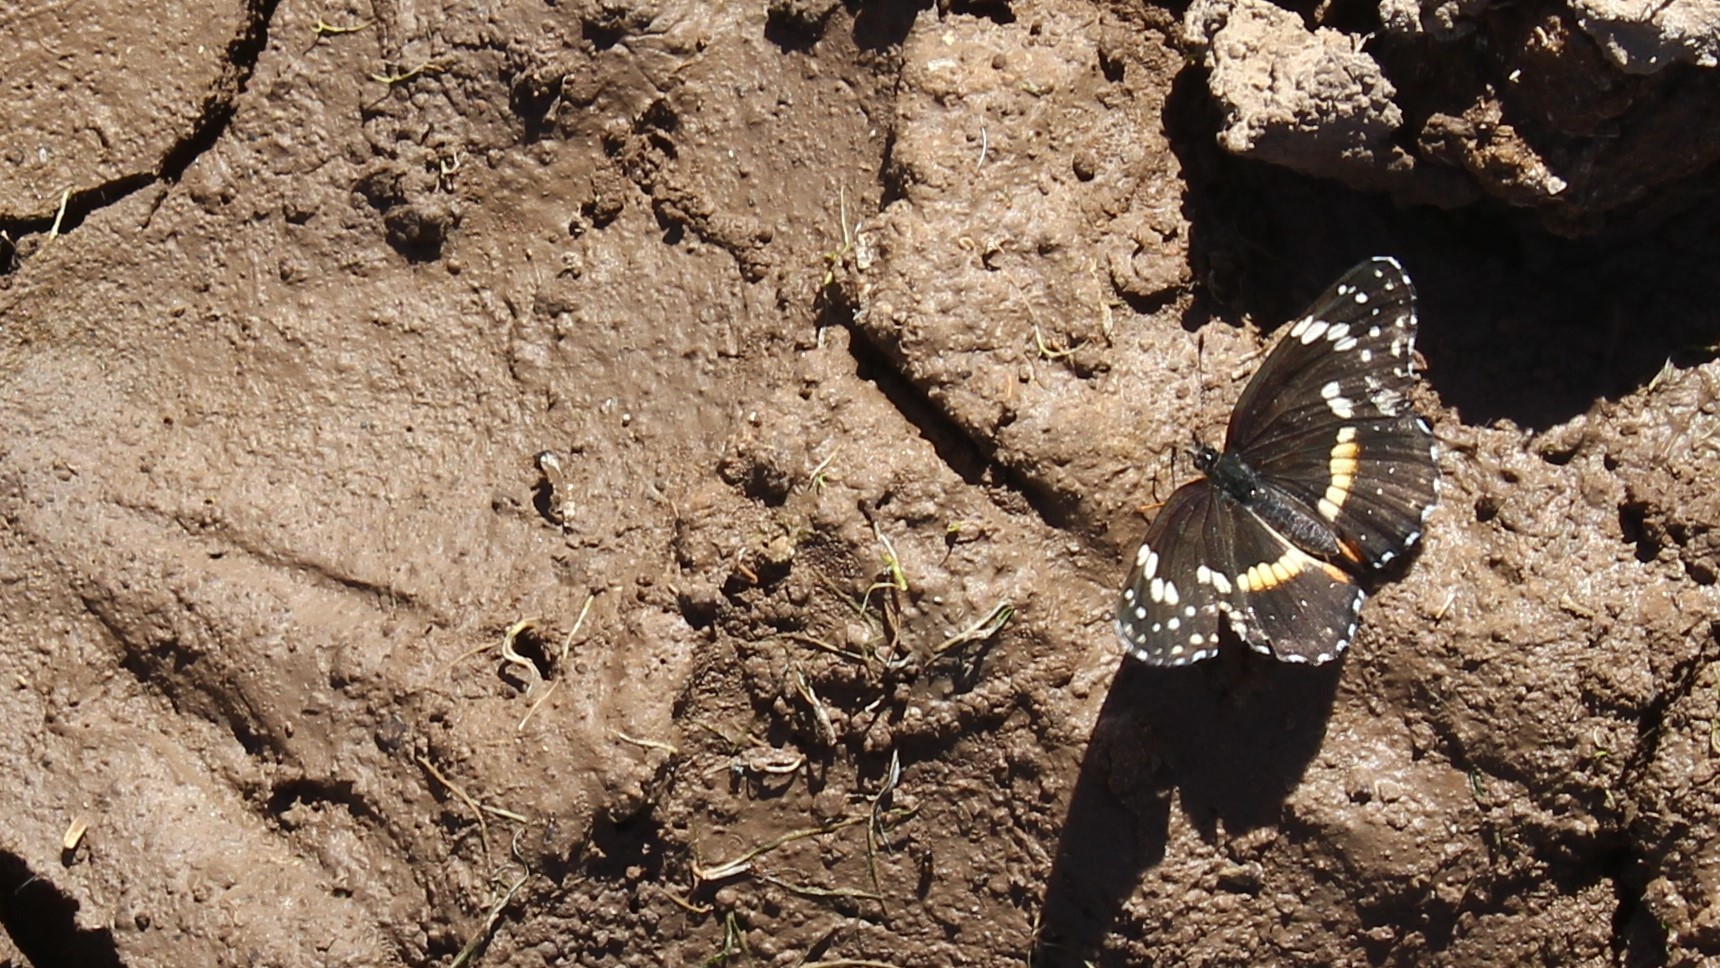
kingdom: Animalia
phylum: Arthropoda
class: Insecta
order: Lepidoptera
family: Nymphalidae
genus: Chlosyne
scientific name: Chlosyne lacinia
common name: Bordered patch
